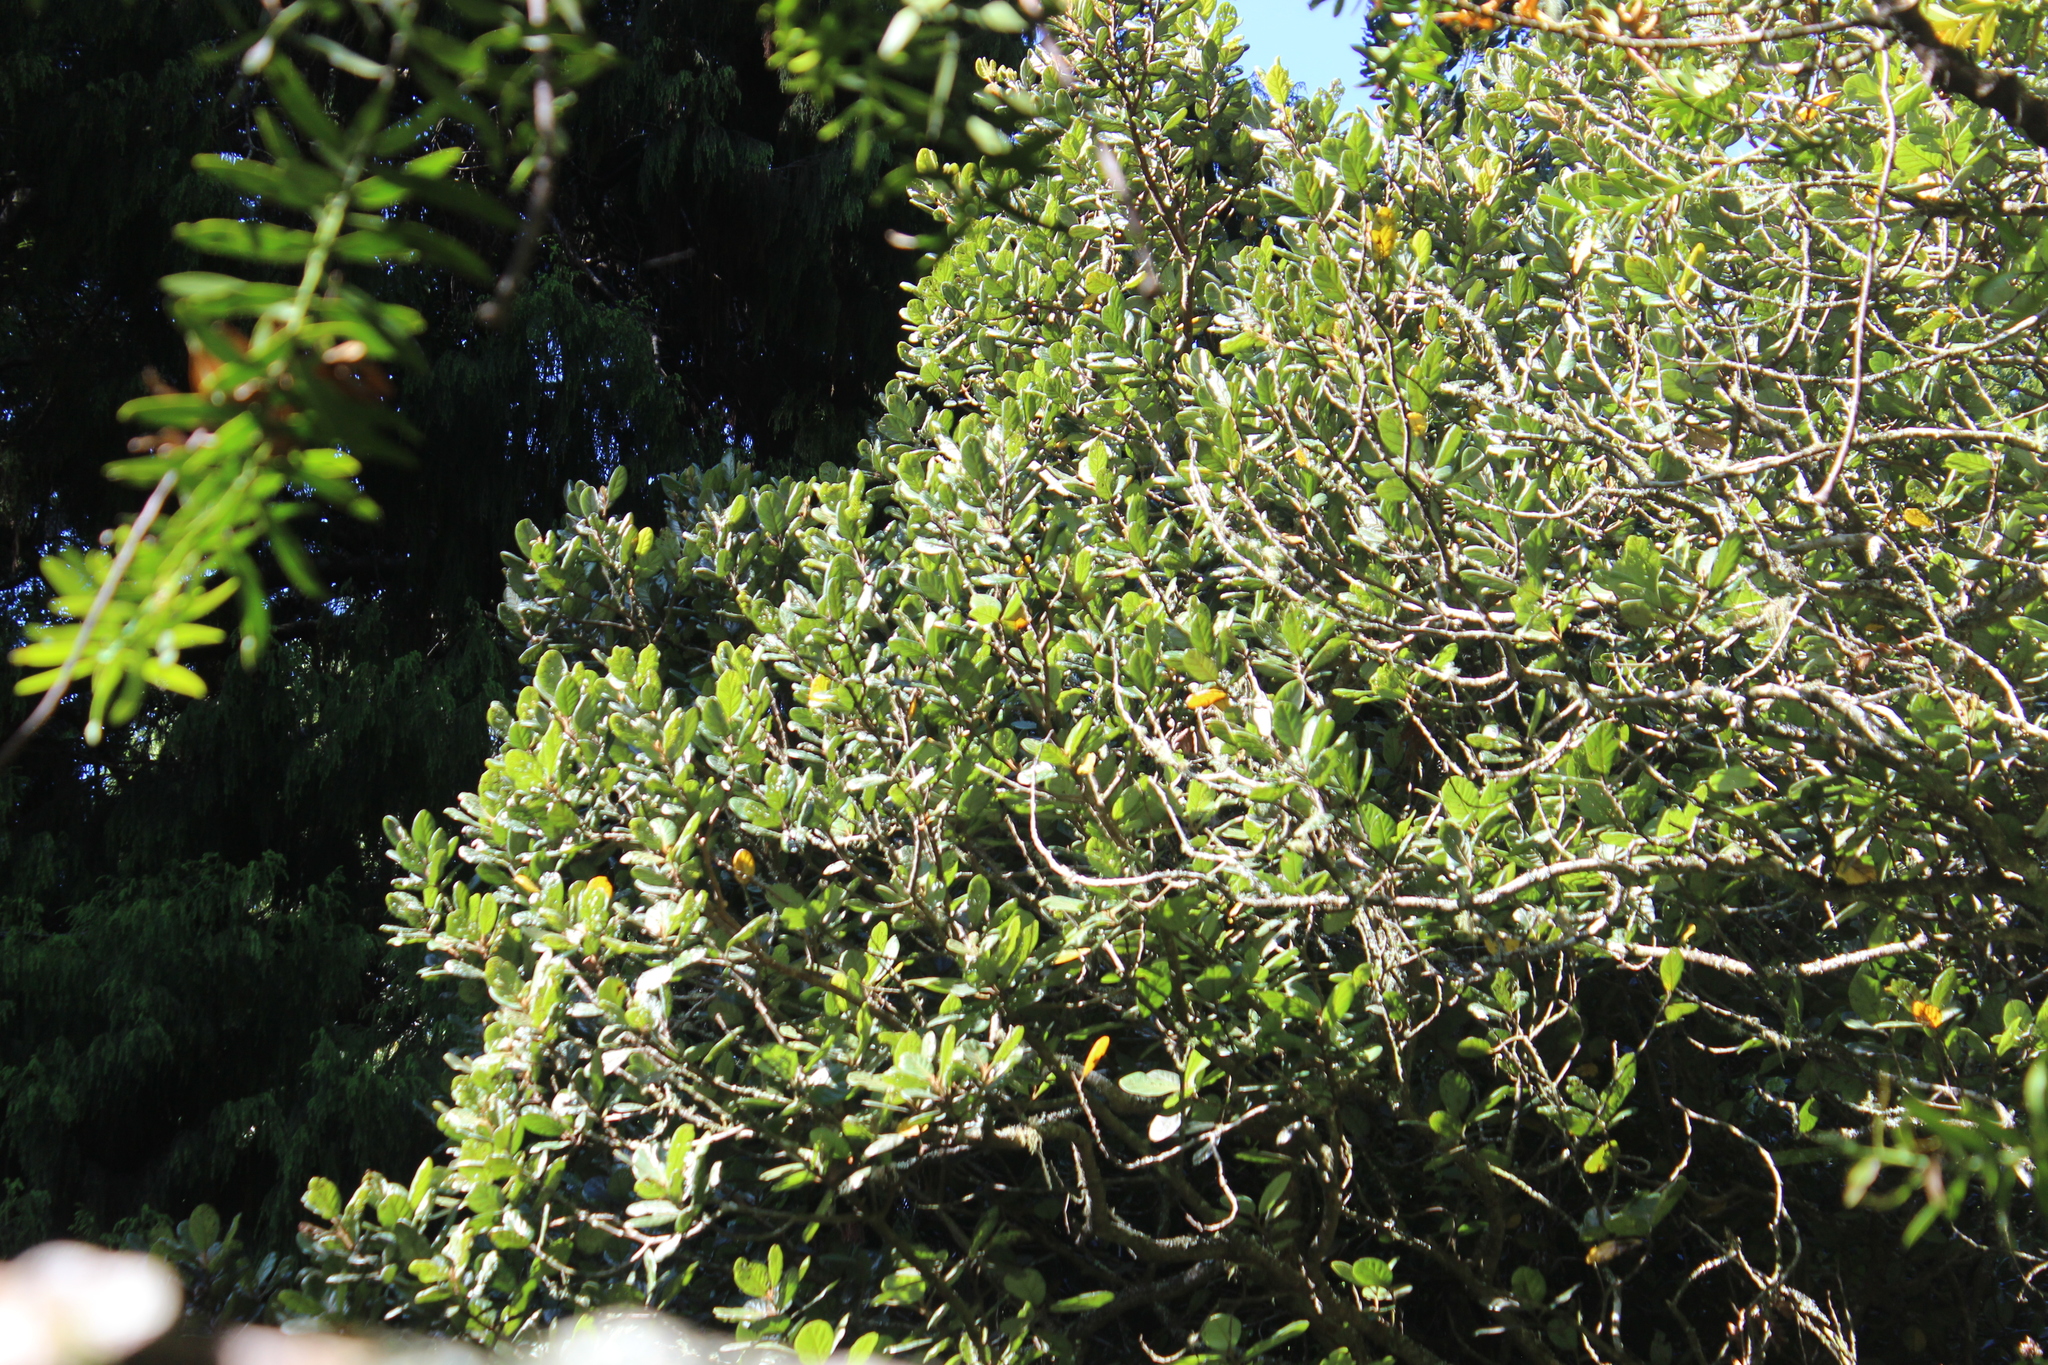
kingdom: Plantae
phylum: Tracheophyta
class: Magnoliopsida
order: Laurales
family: Lauraceae
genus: Beilschmiedia
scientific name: Beilschmiedia tarairi
